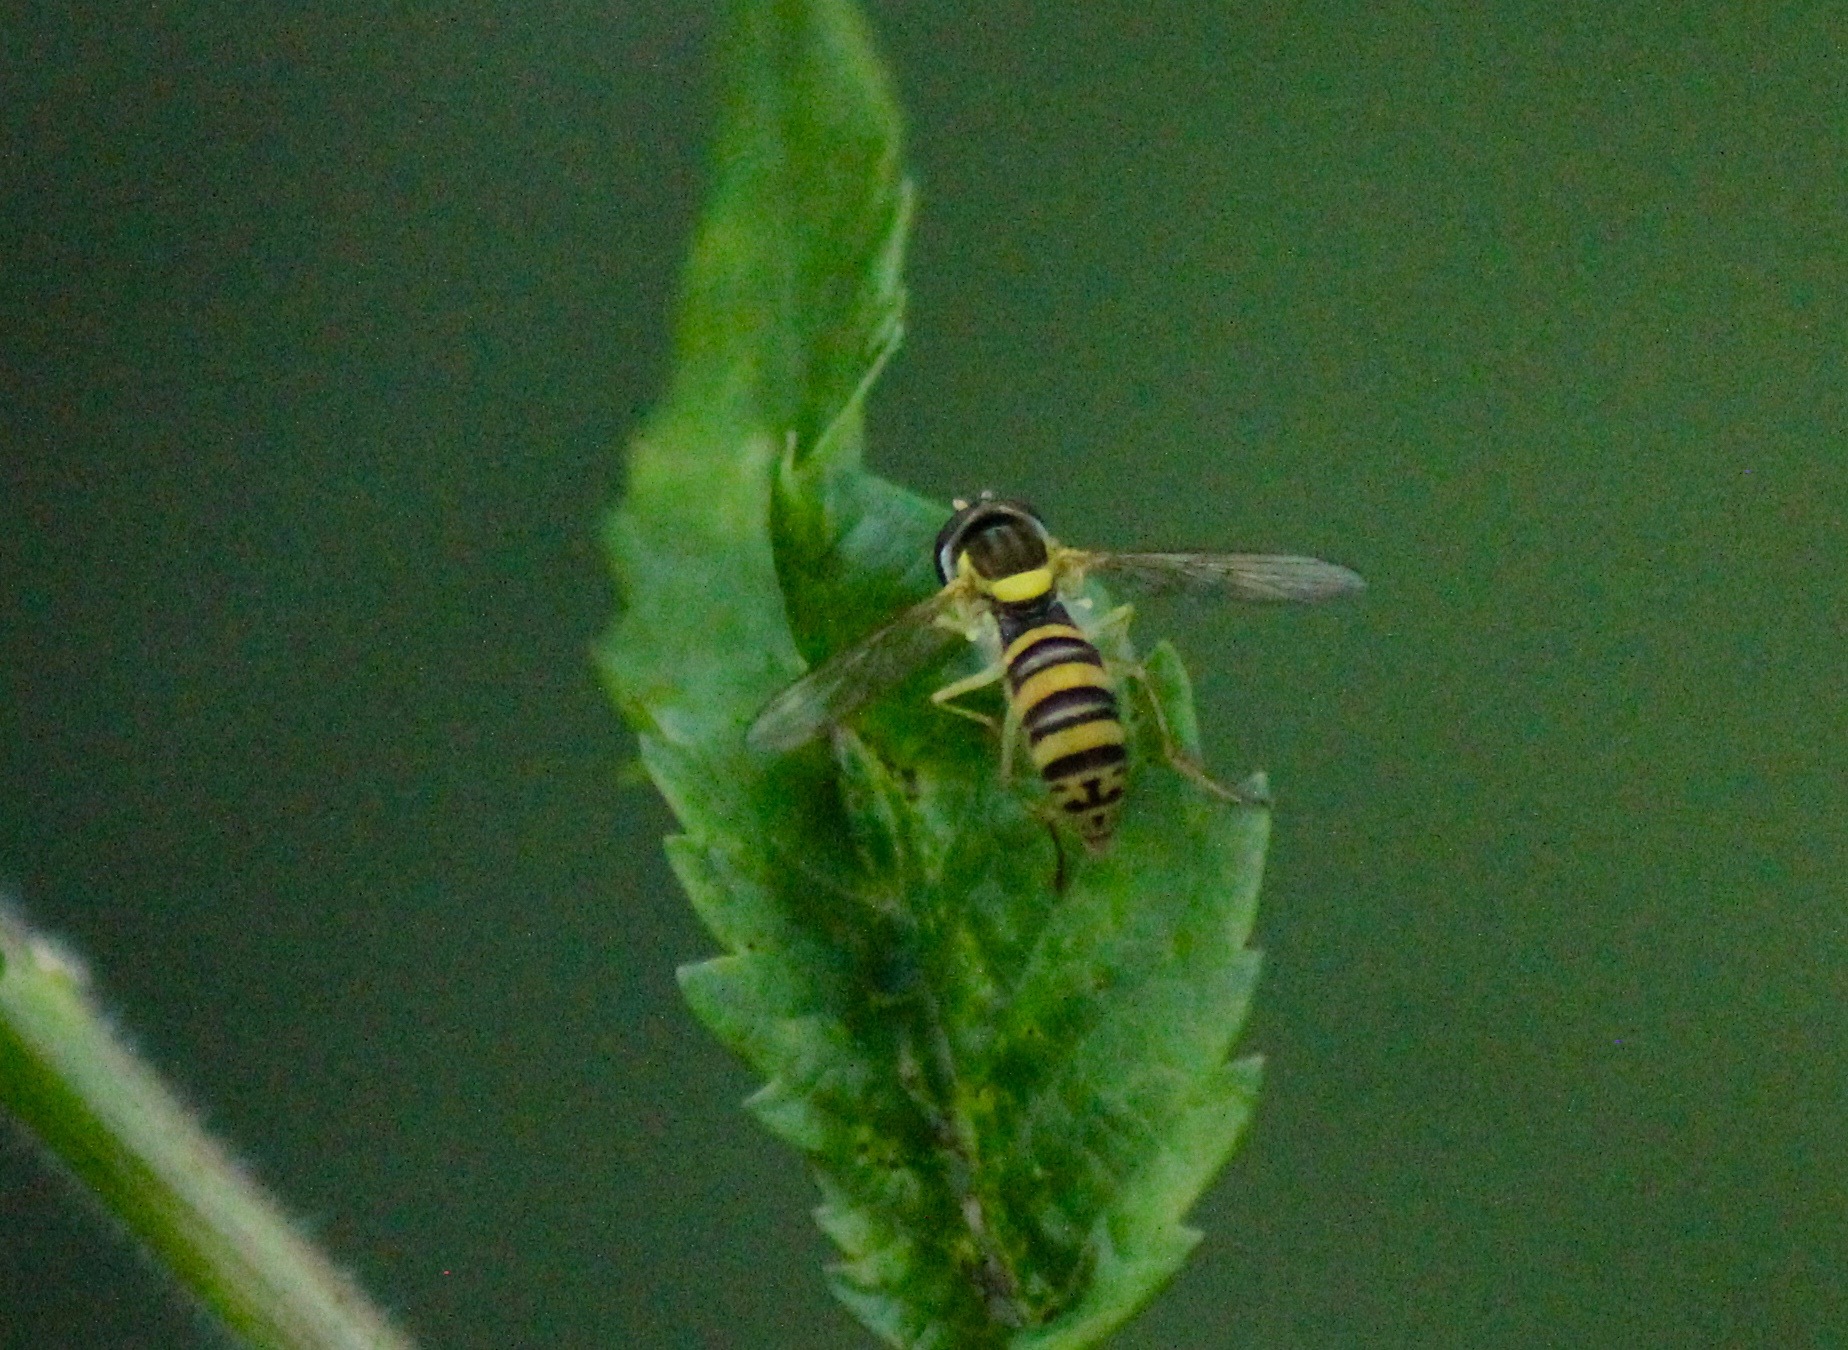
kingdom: Animalia
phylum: Arthropoda
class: Insecta
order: Diptera
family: Syrphidae
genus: Sphaerophoria
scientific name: Sphaerophoria
